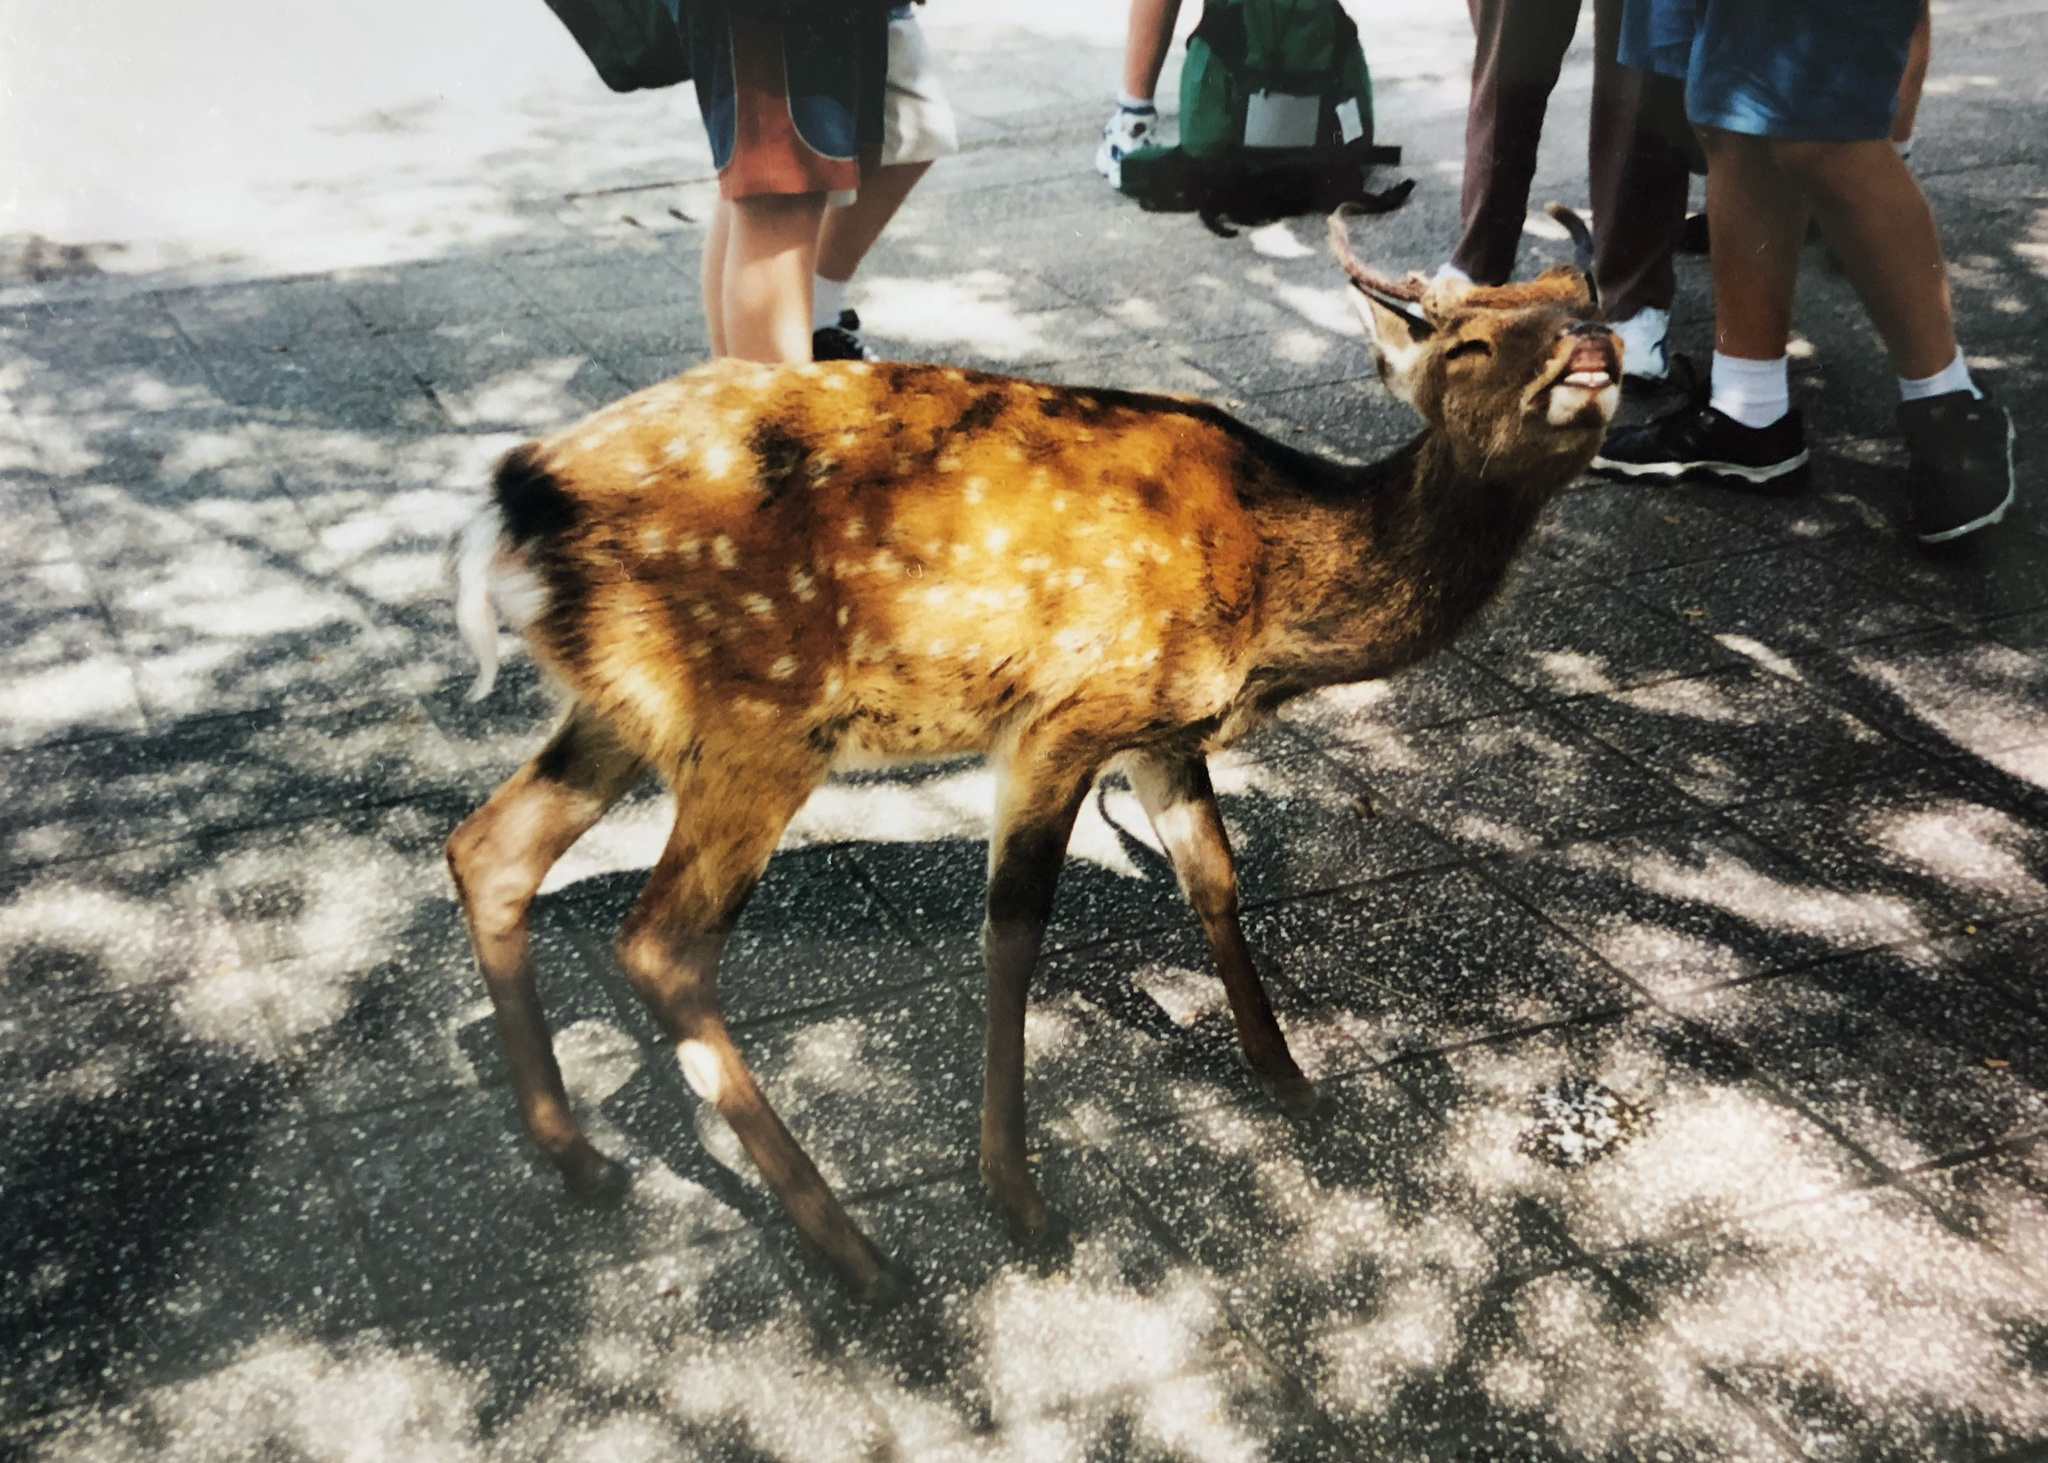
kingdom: Animalia
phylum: Chordata
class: Mammalia
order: Artiodactyla
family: Cervidae
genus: Cervus
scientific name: Cervus nippon
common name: Sika deer
